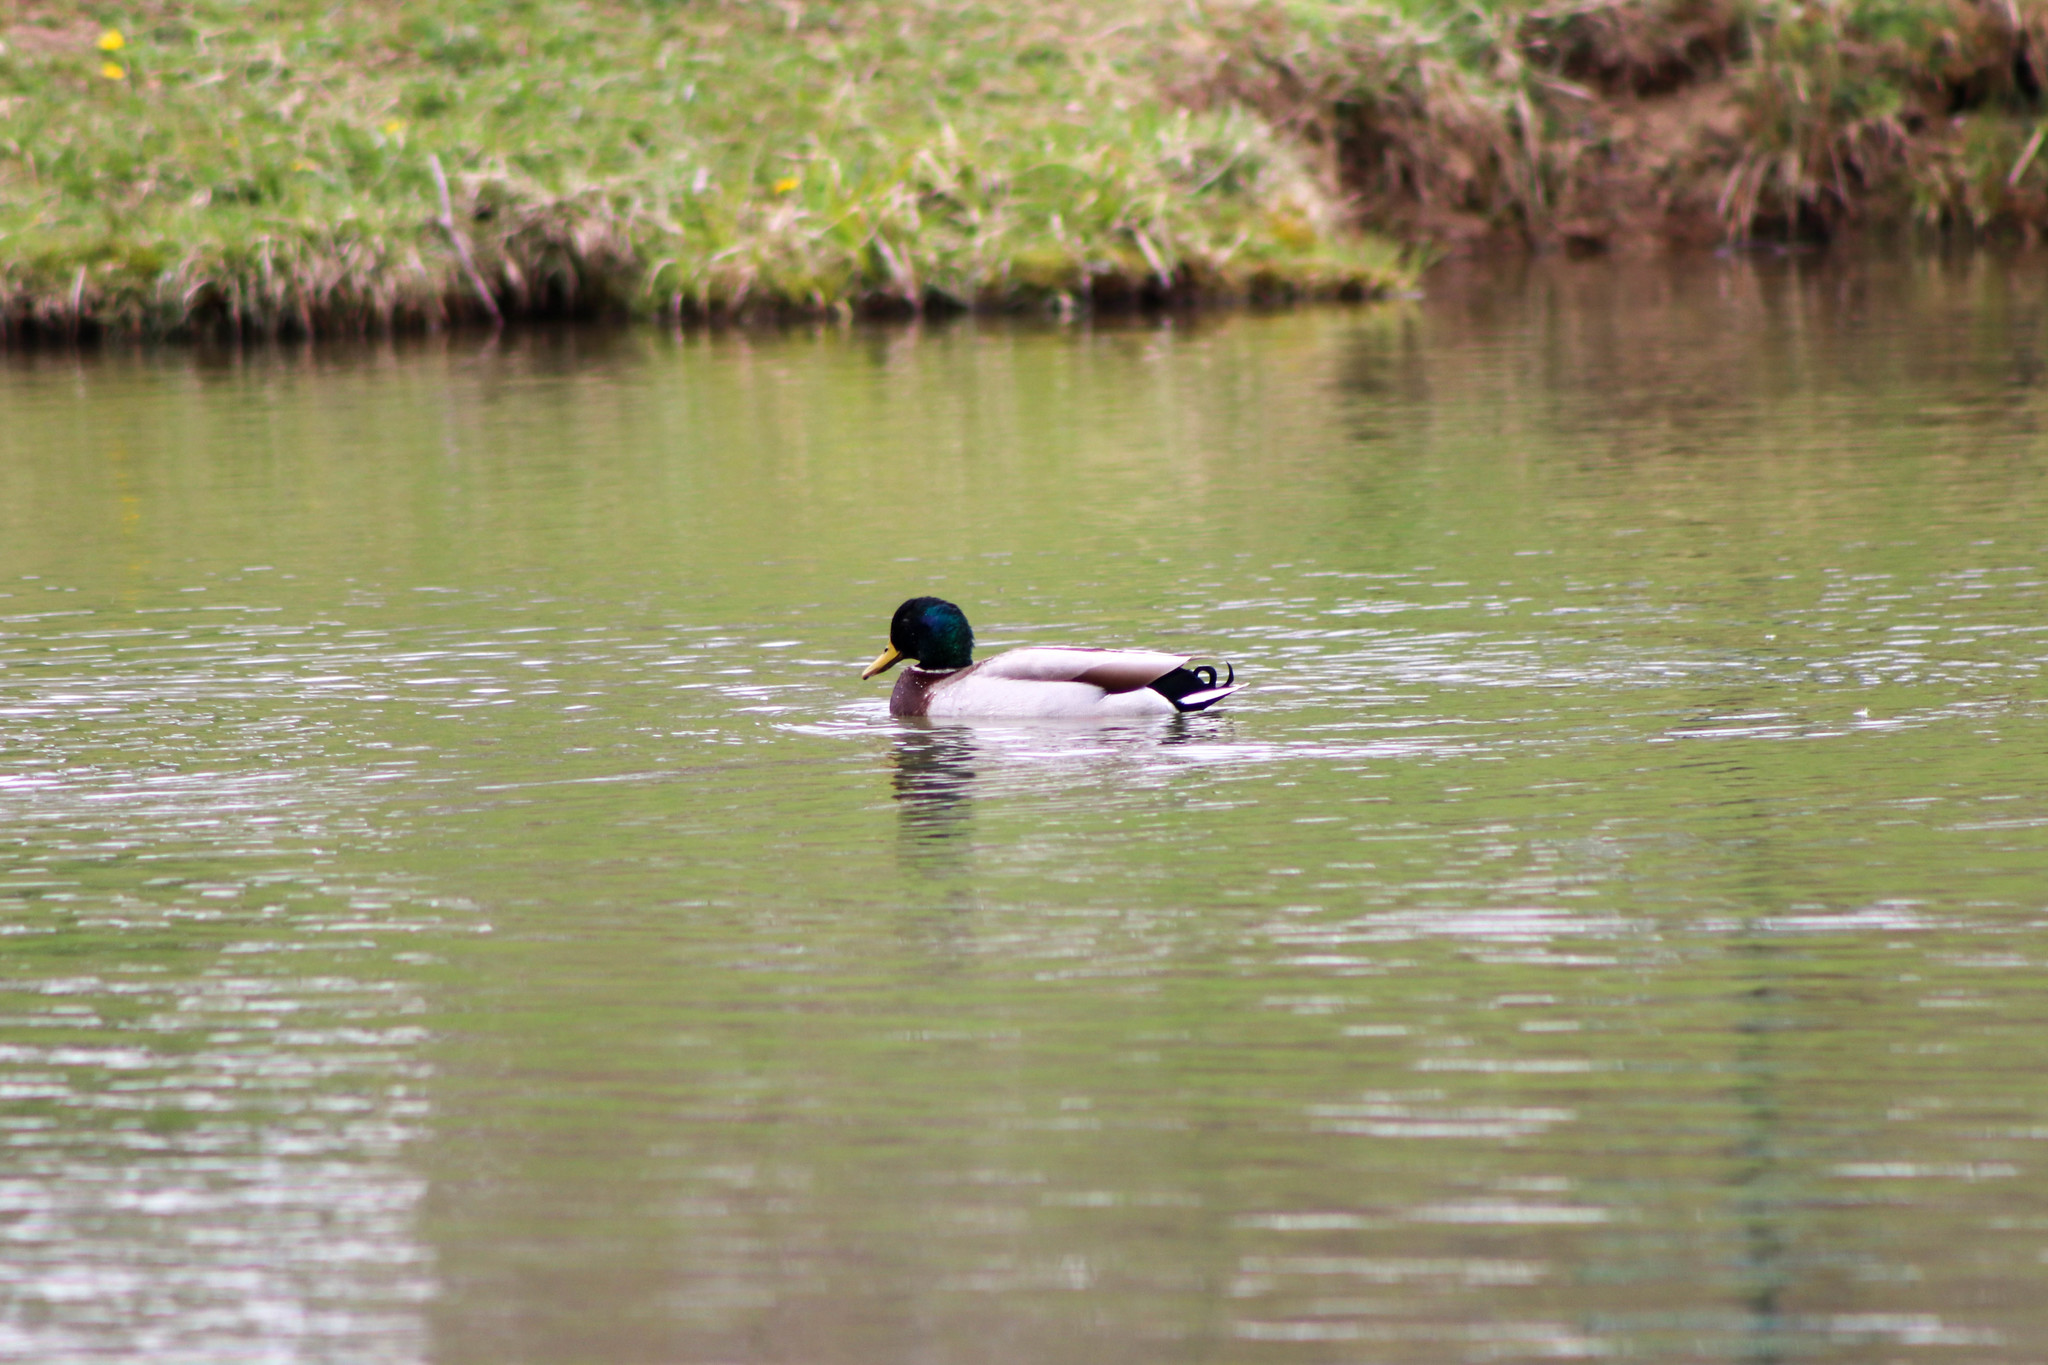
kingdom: Animalia
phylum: Chordata
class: Aves
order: Anseriformes
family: Anatidae
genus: Anas
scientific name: Anas platyrhynchos
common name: Mallard
